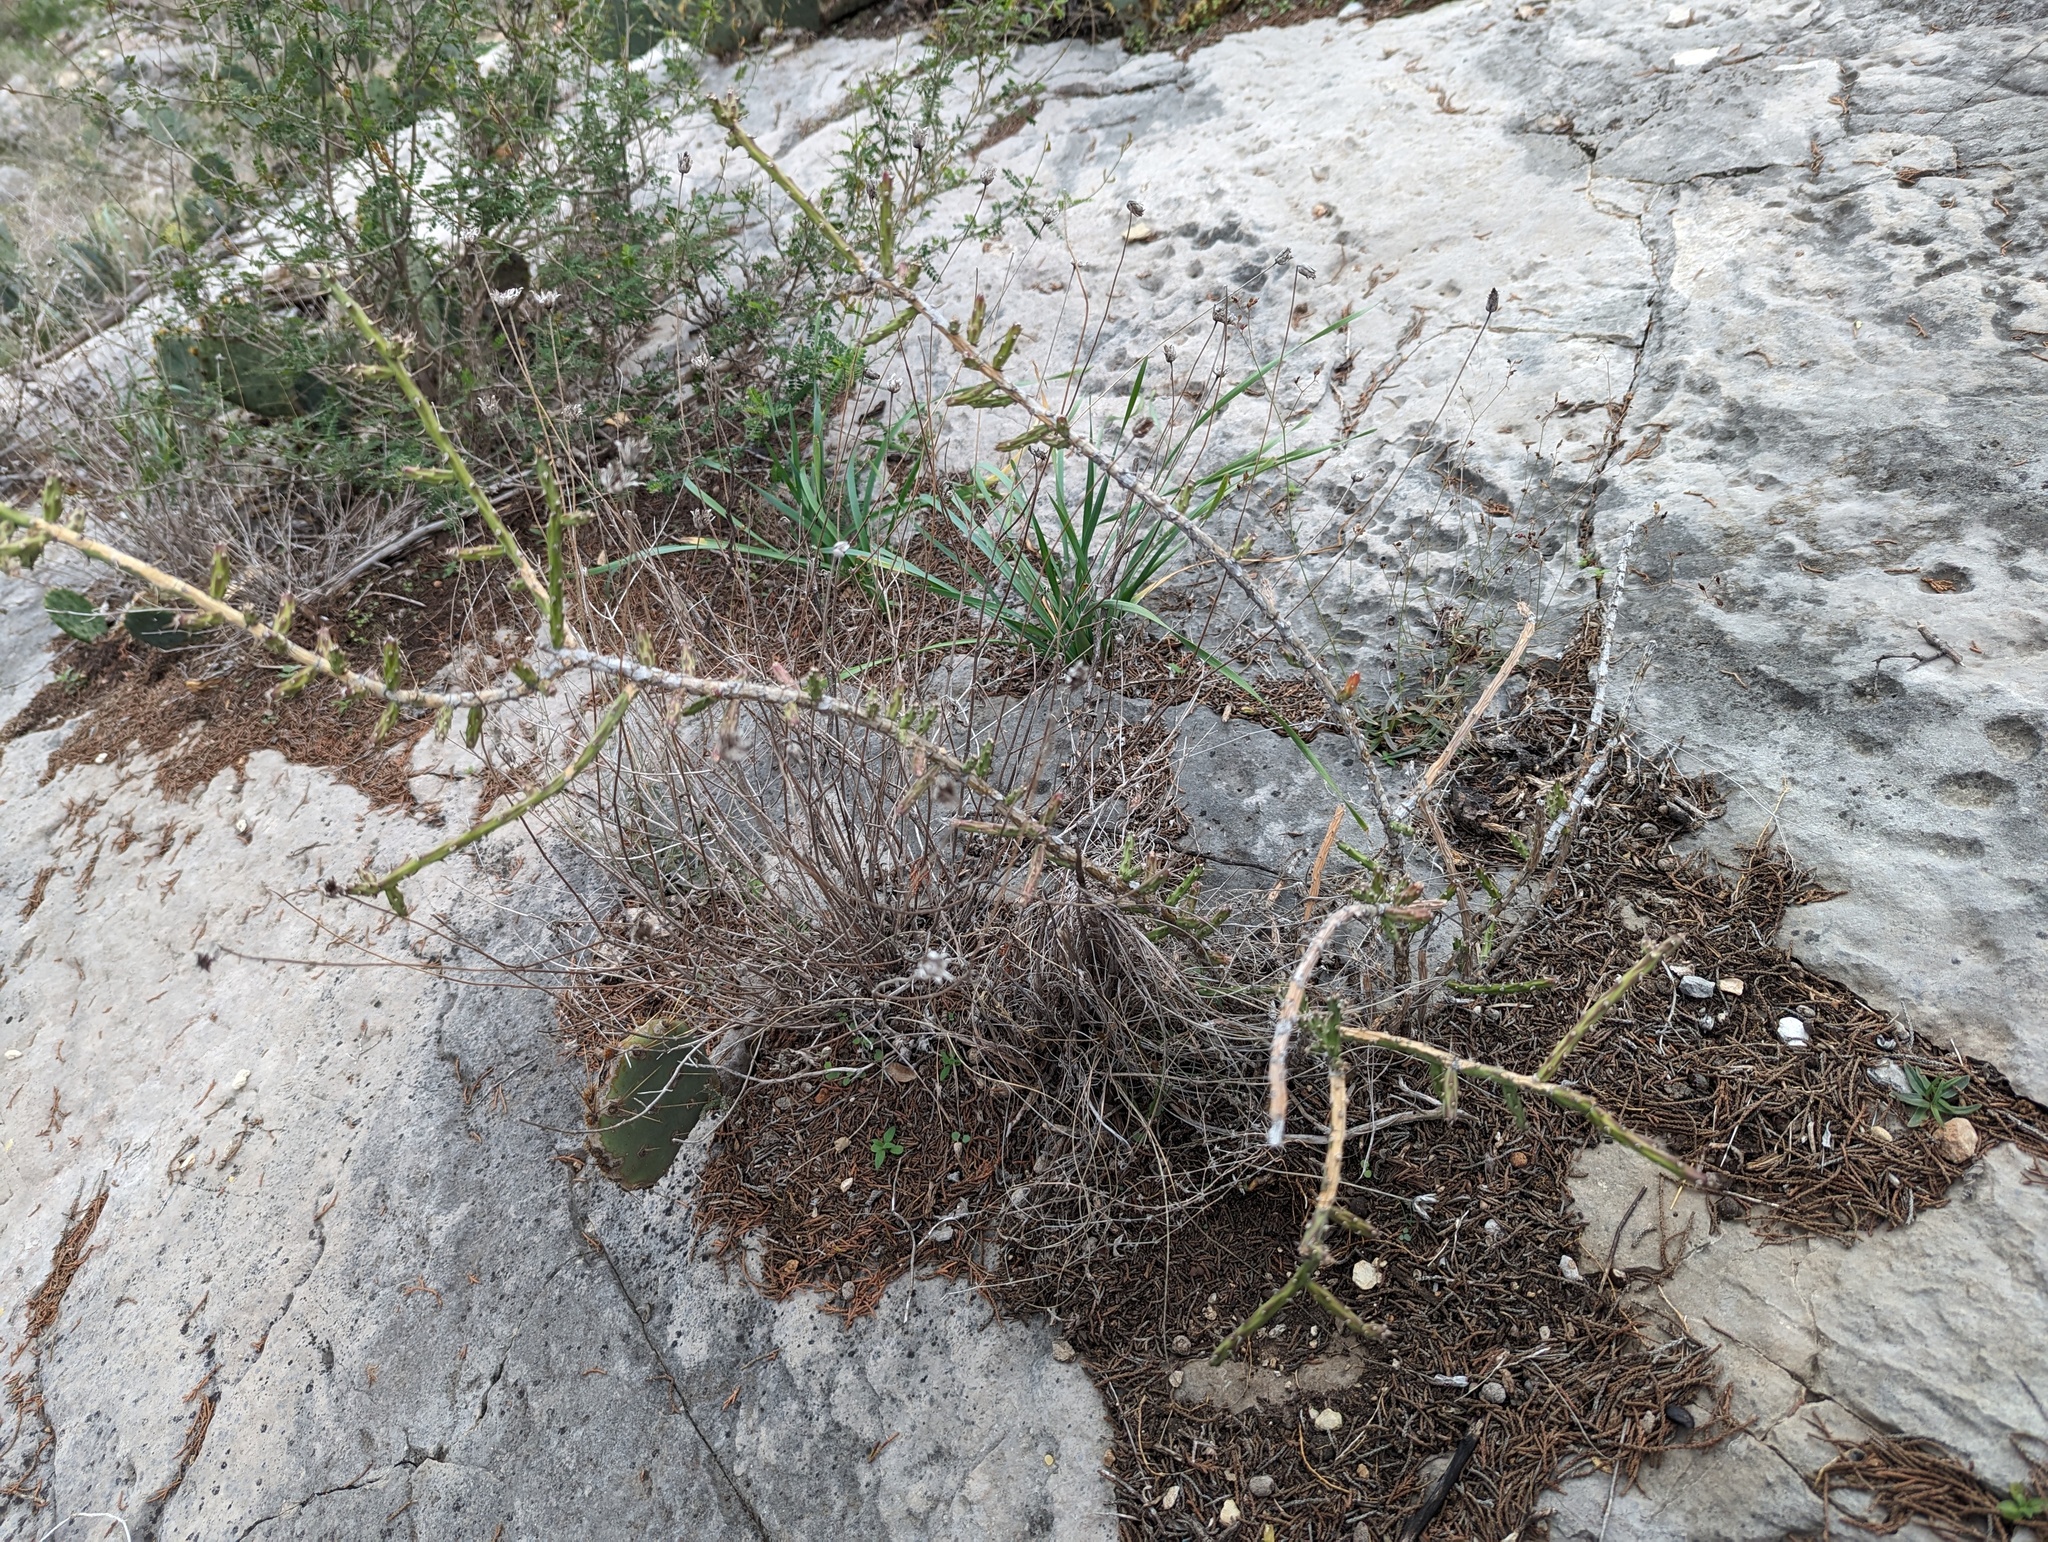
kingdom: Plantae
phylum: Tracheophyta
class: Magnoliopsida
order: Caryophyllales
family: Cactaceae
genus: Cylindropuntia
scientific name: Cylindropuntia leptocaulis
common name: Christmas cactus
